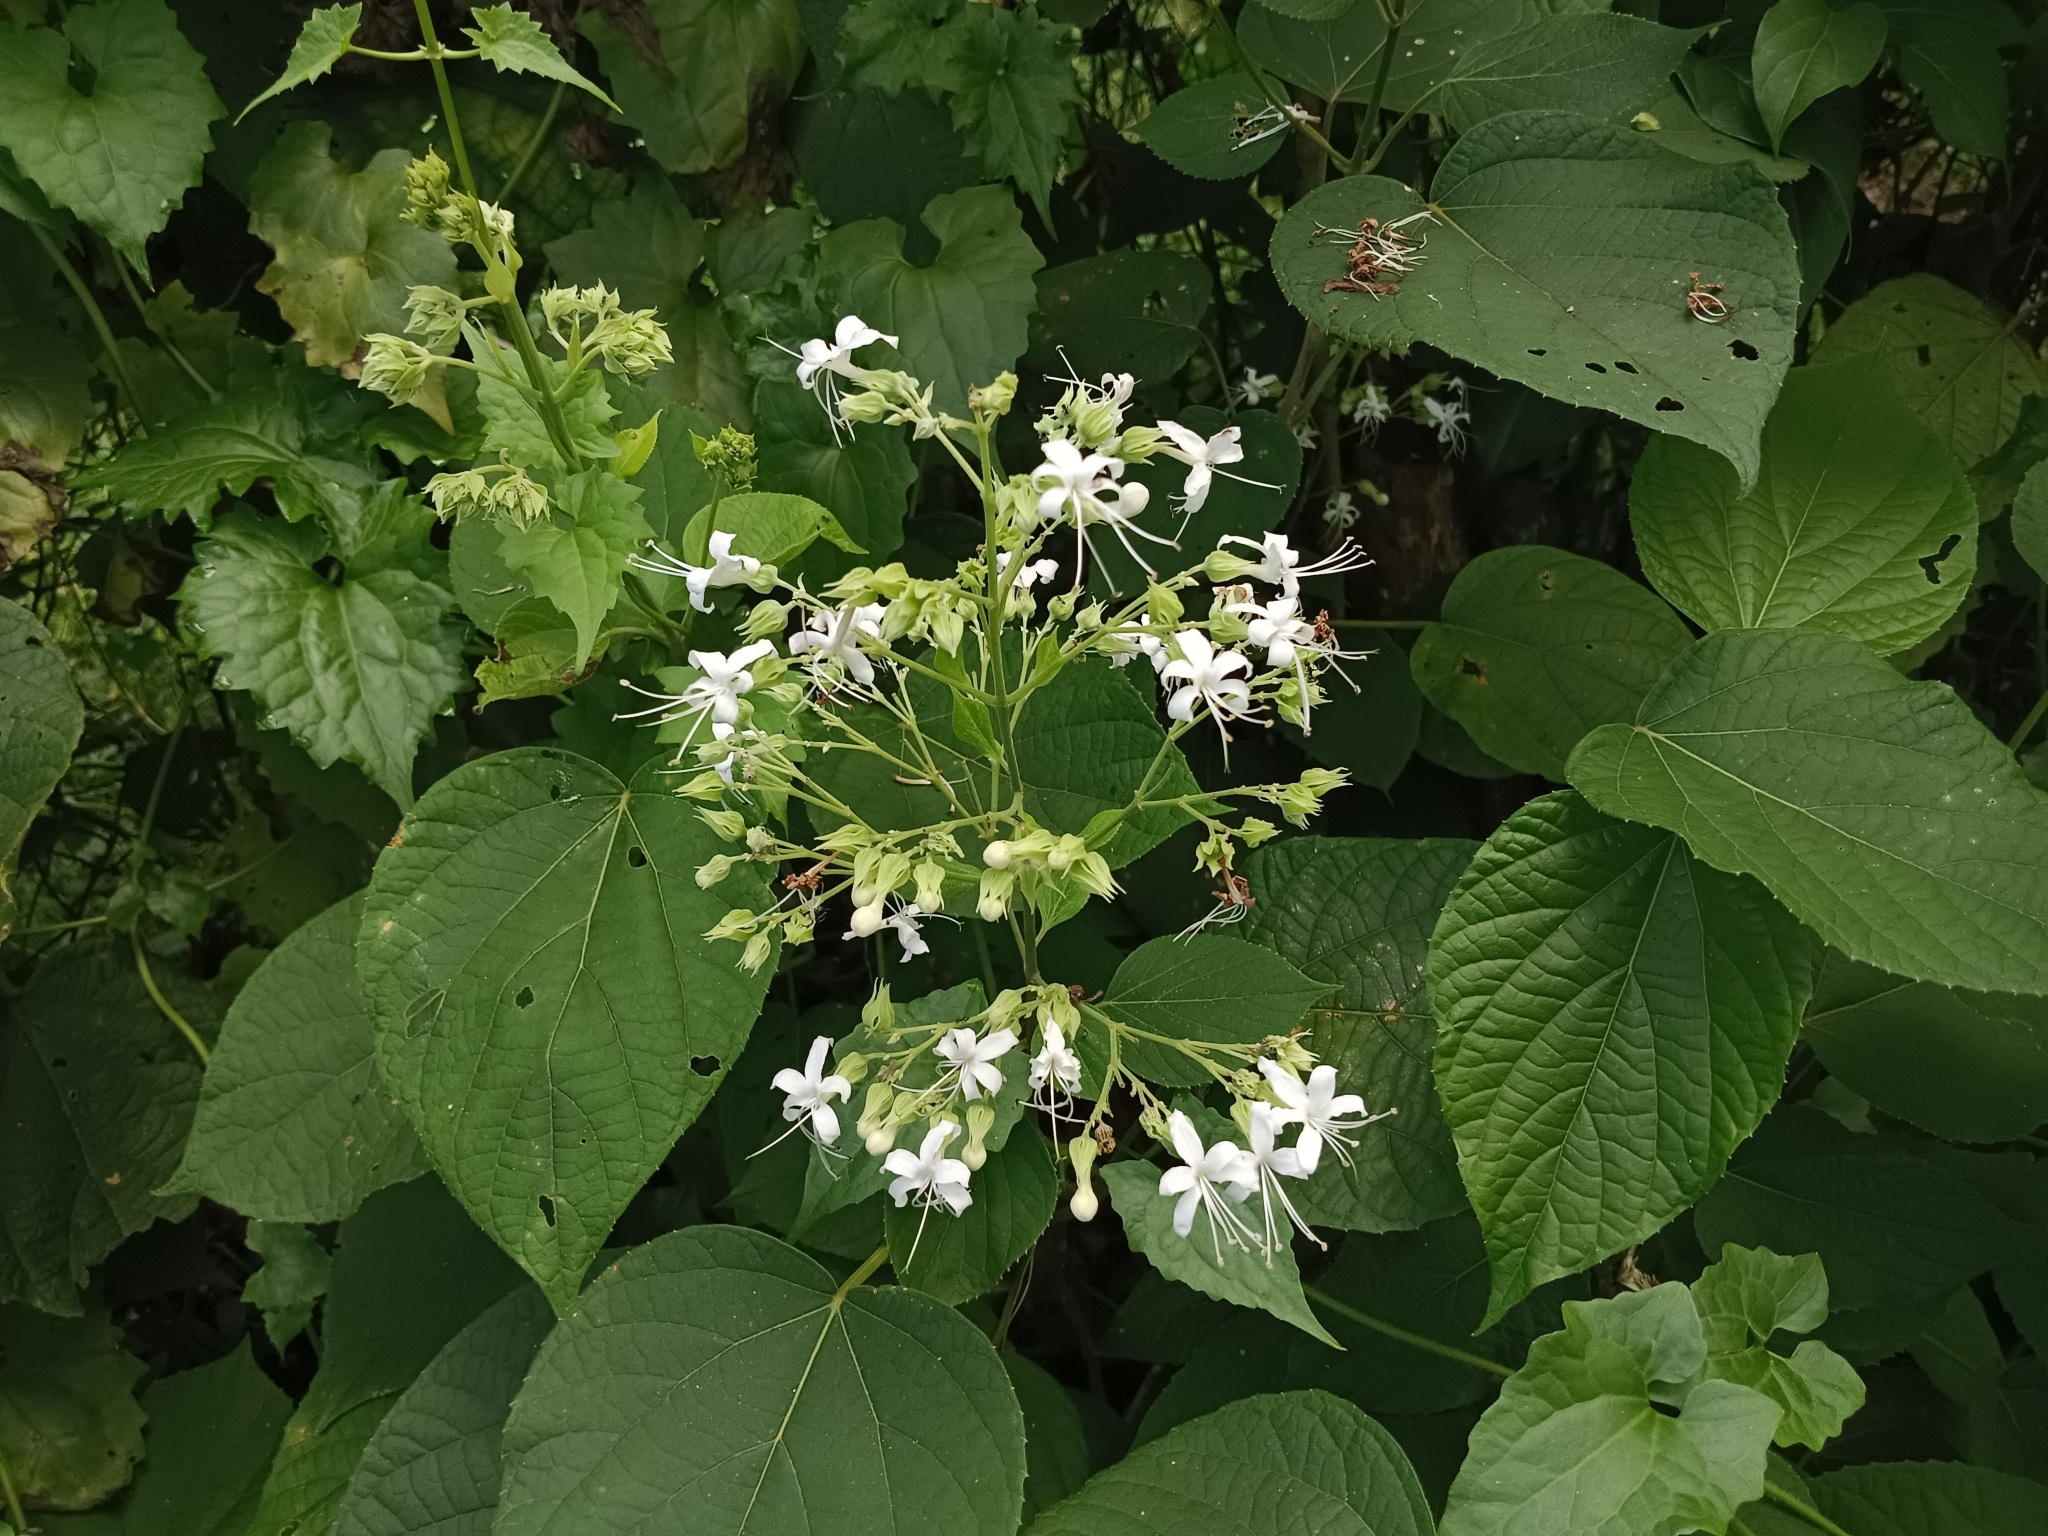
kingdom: Plantae
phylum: Tracheophyta
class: Magnoliopsida
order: Lamiales
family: Lamiaceae
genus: Clerodendrum
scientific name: Clerodendrum infortunatum
